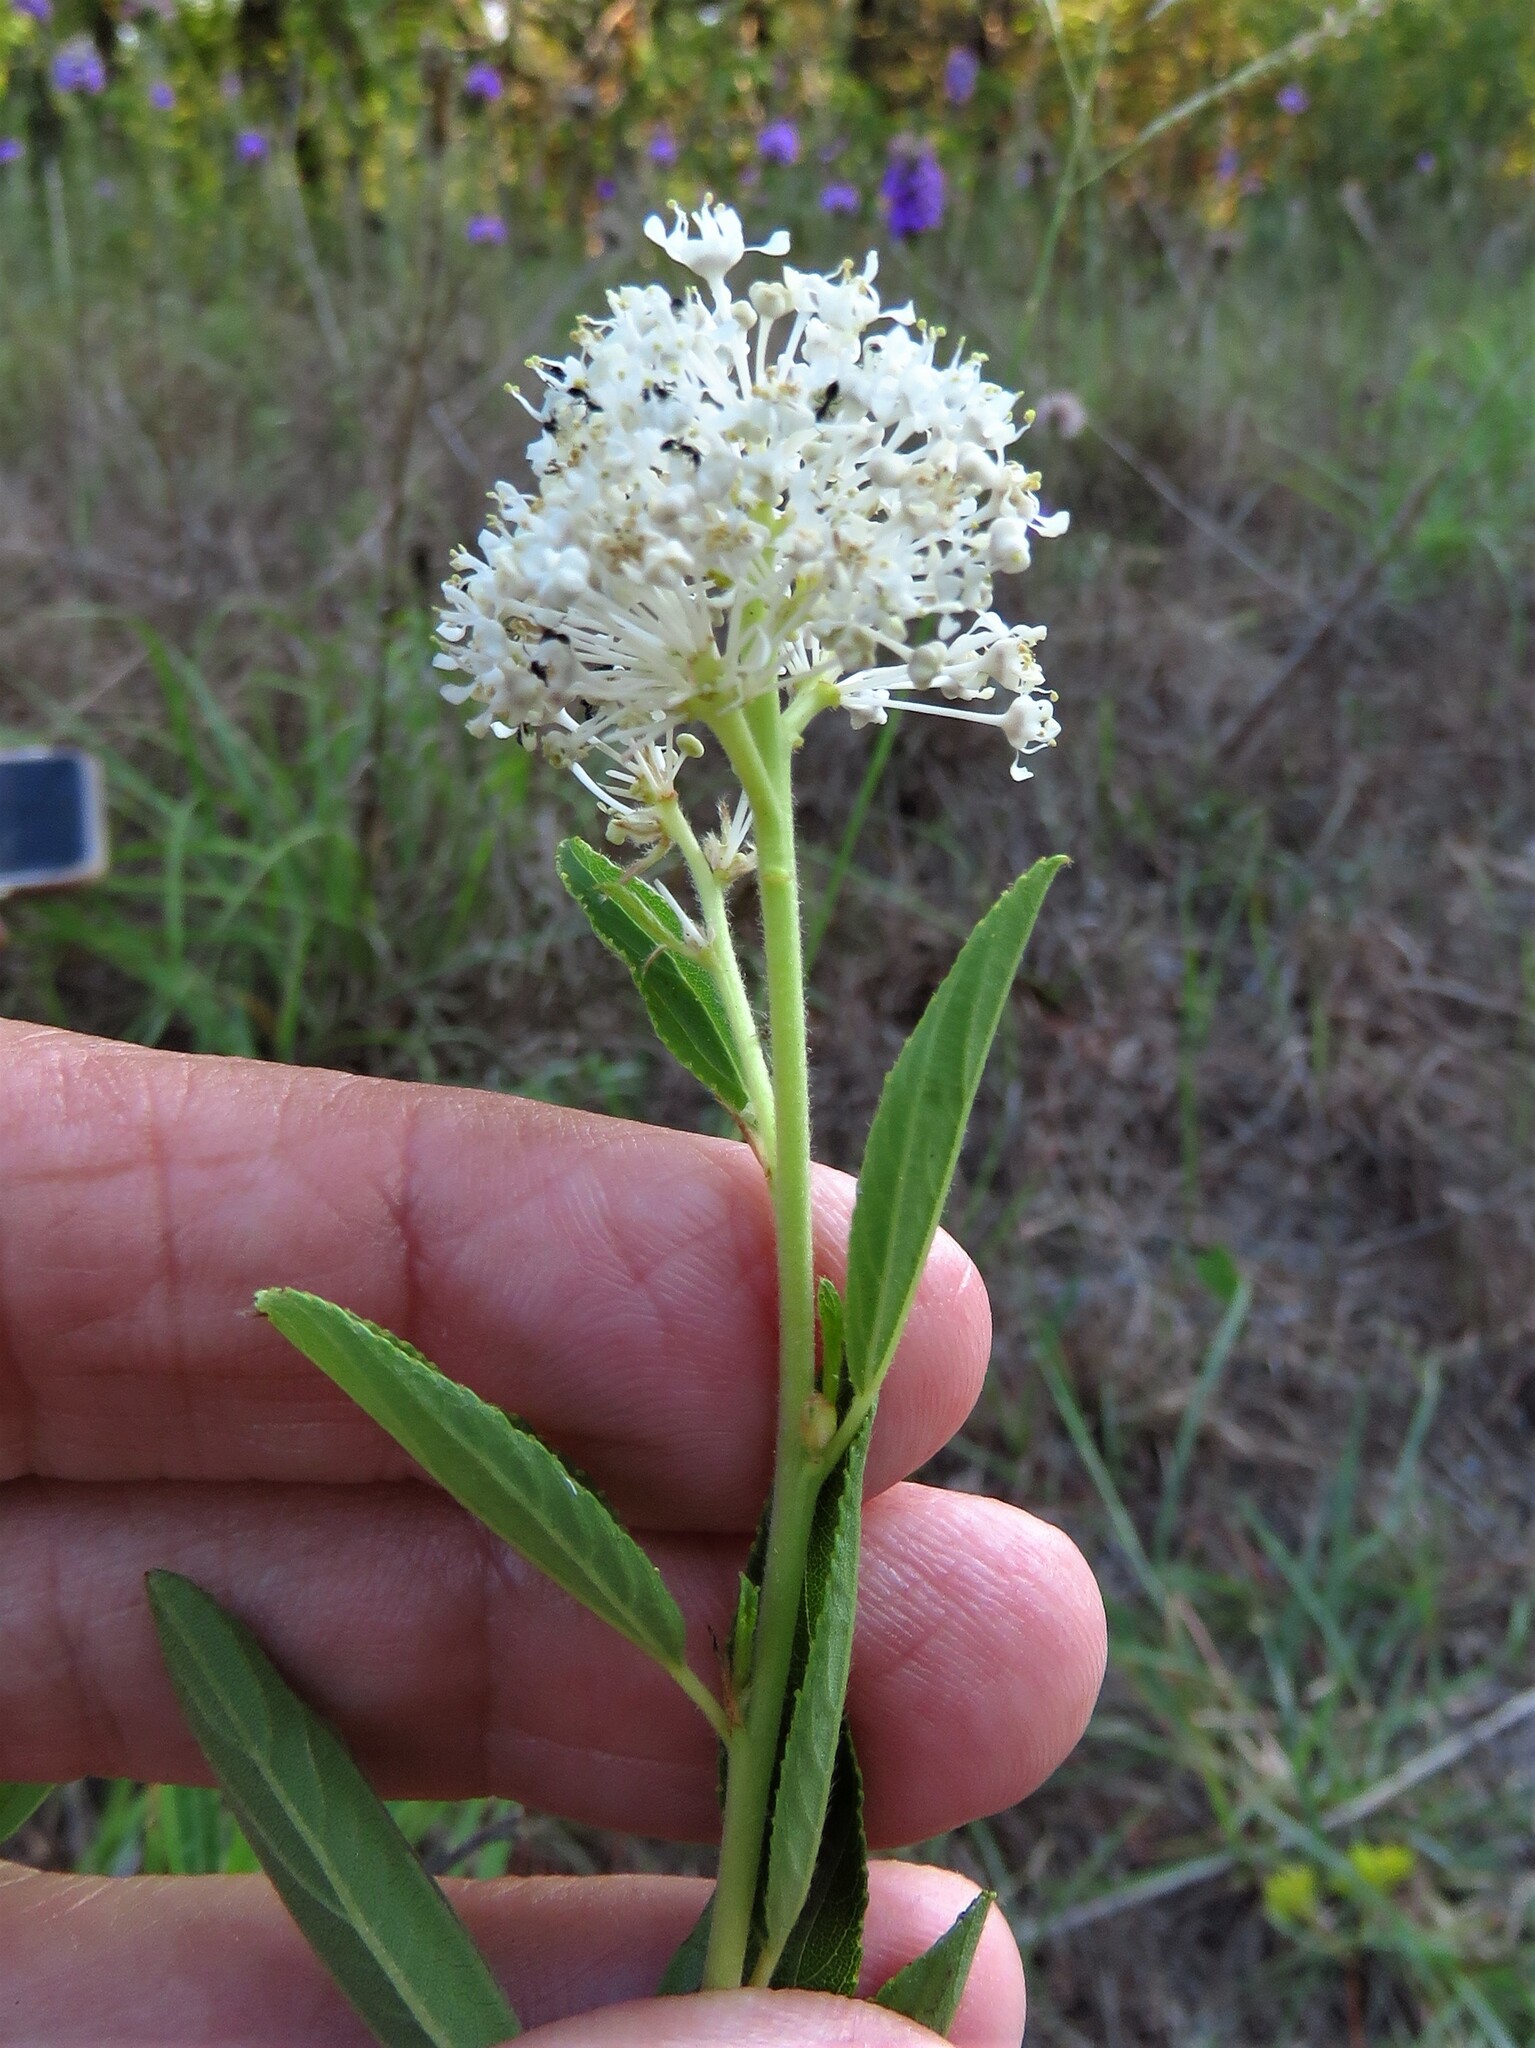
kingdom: Plantae
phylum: Tracheophyta
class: Magnoliopsida
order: Rosales
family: Rhamnaceae
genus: Ceanothus
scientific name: Ceanothus herbaceus
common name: Inland ceanothus
